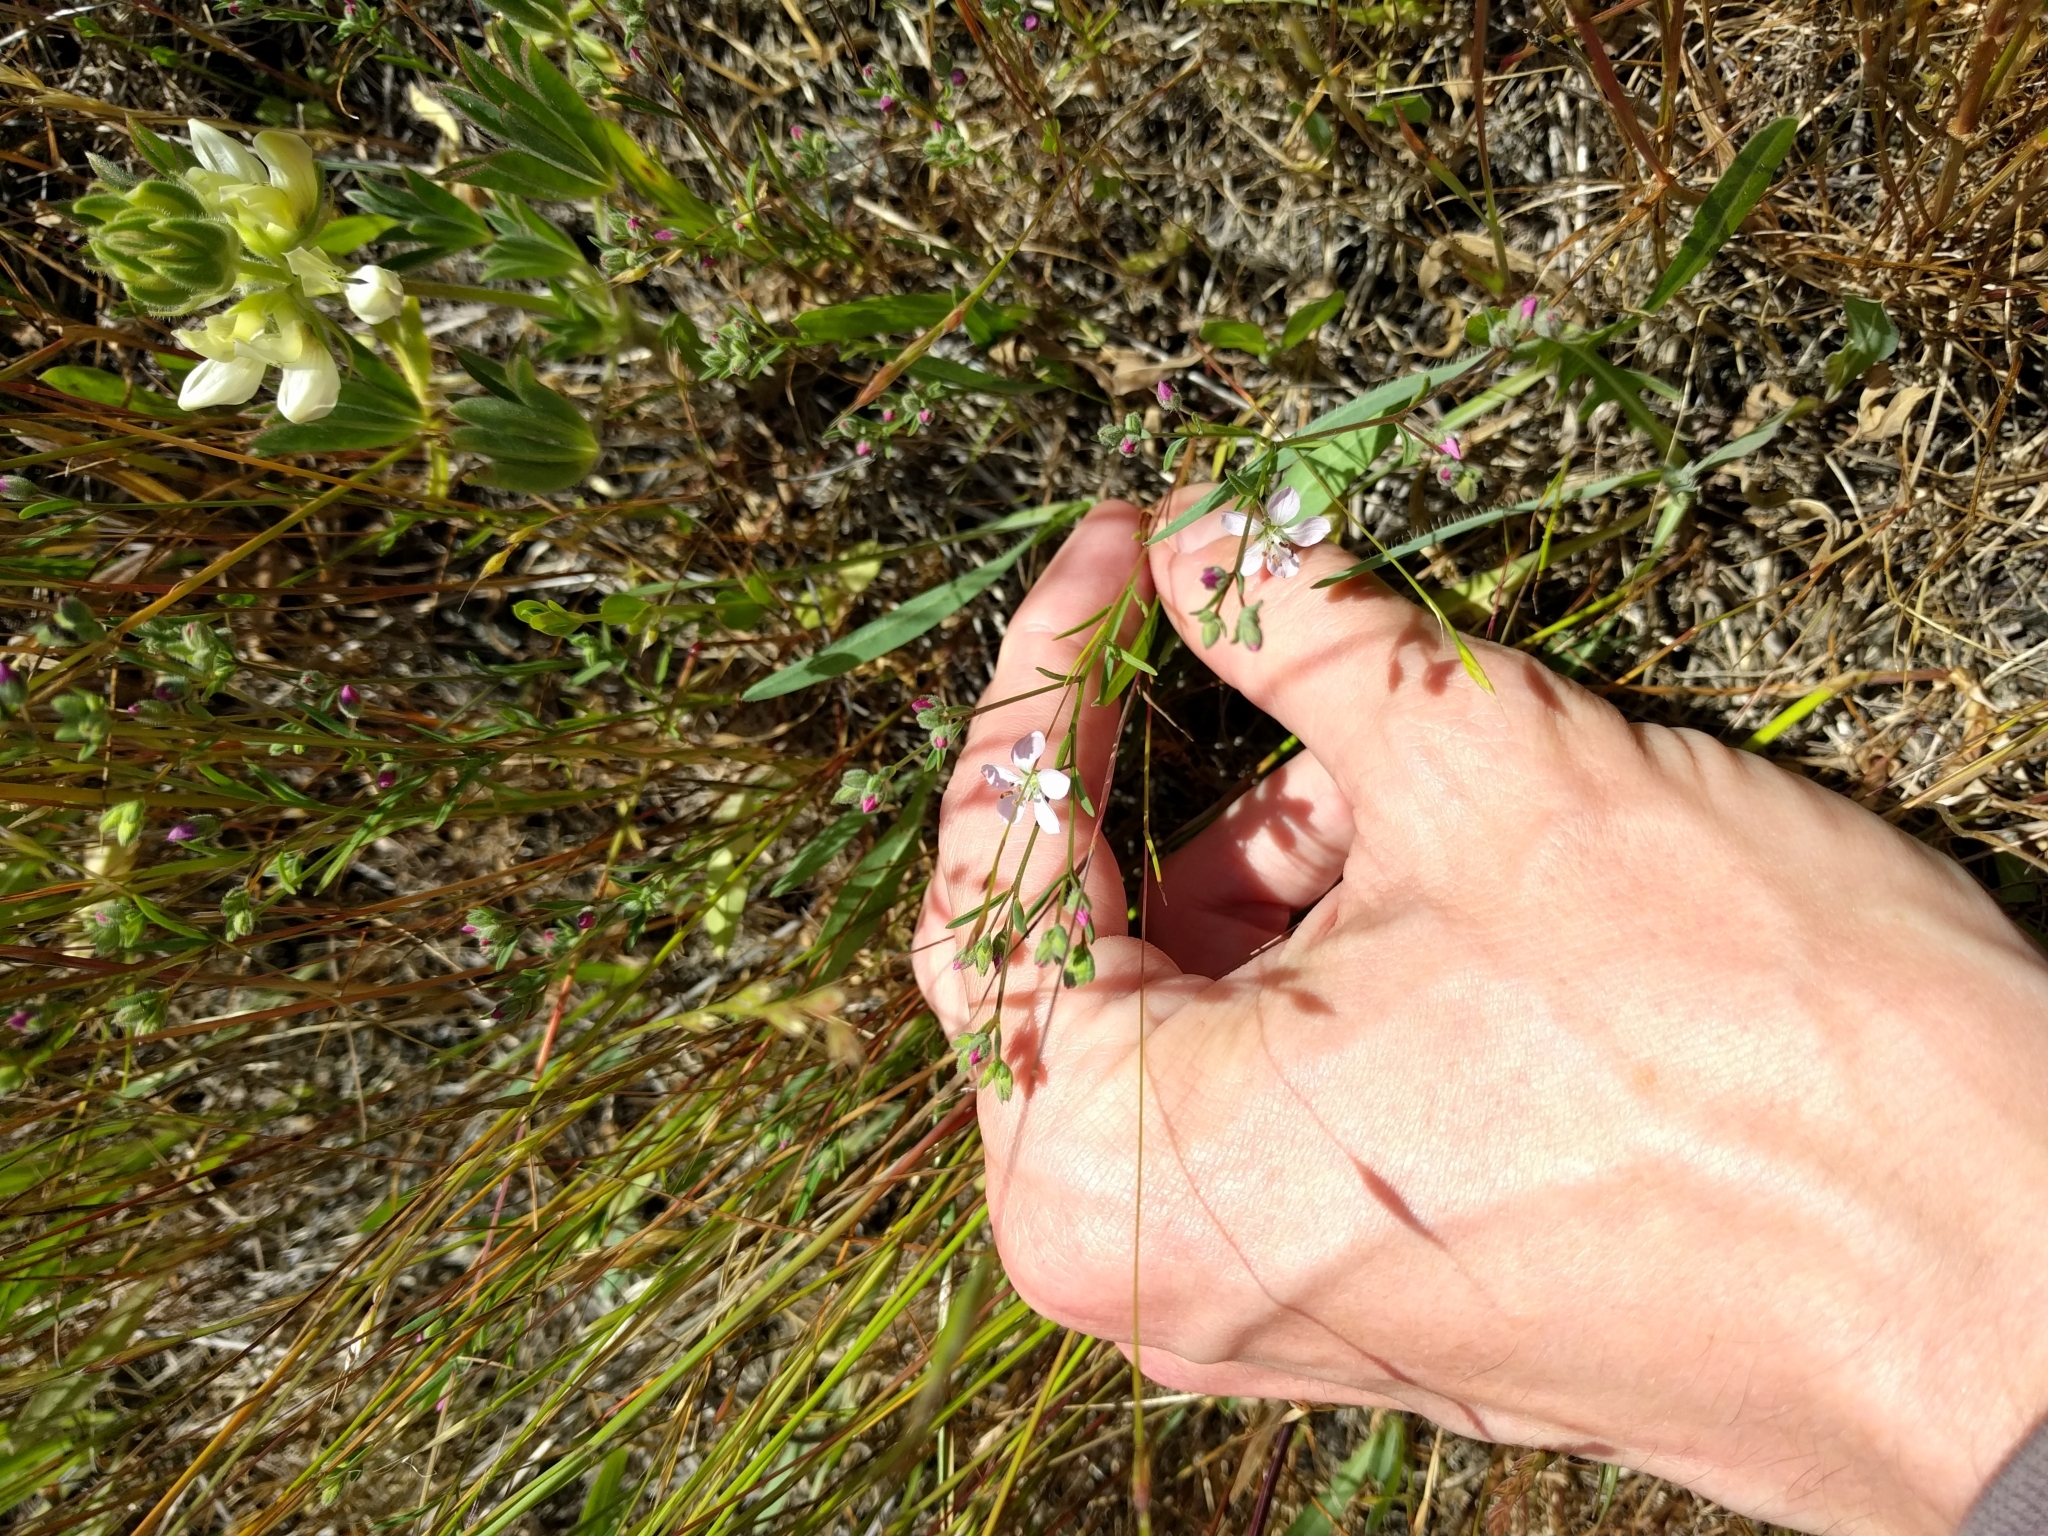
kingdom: Plantae
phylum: Tracheophyta
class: Magnoliopsida
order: Malpighiales
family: Linaceae
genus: Hesperolinon
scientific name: Hesperolinon congestum
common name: Marin dwarf-flax
